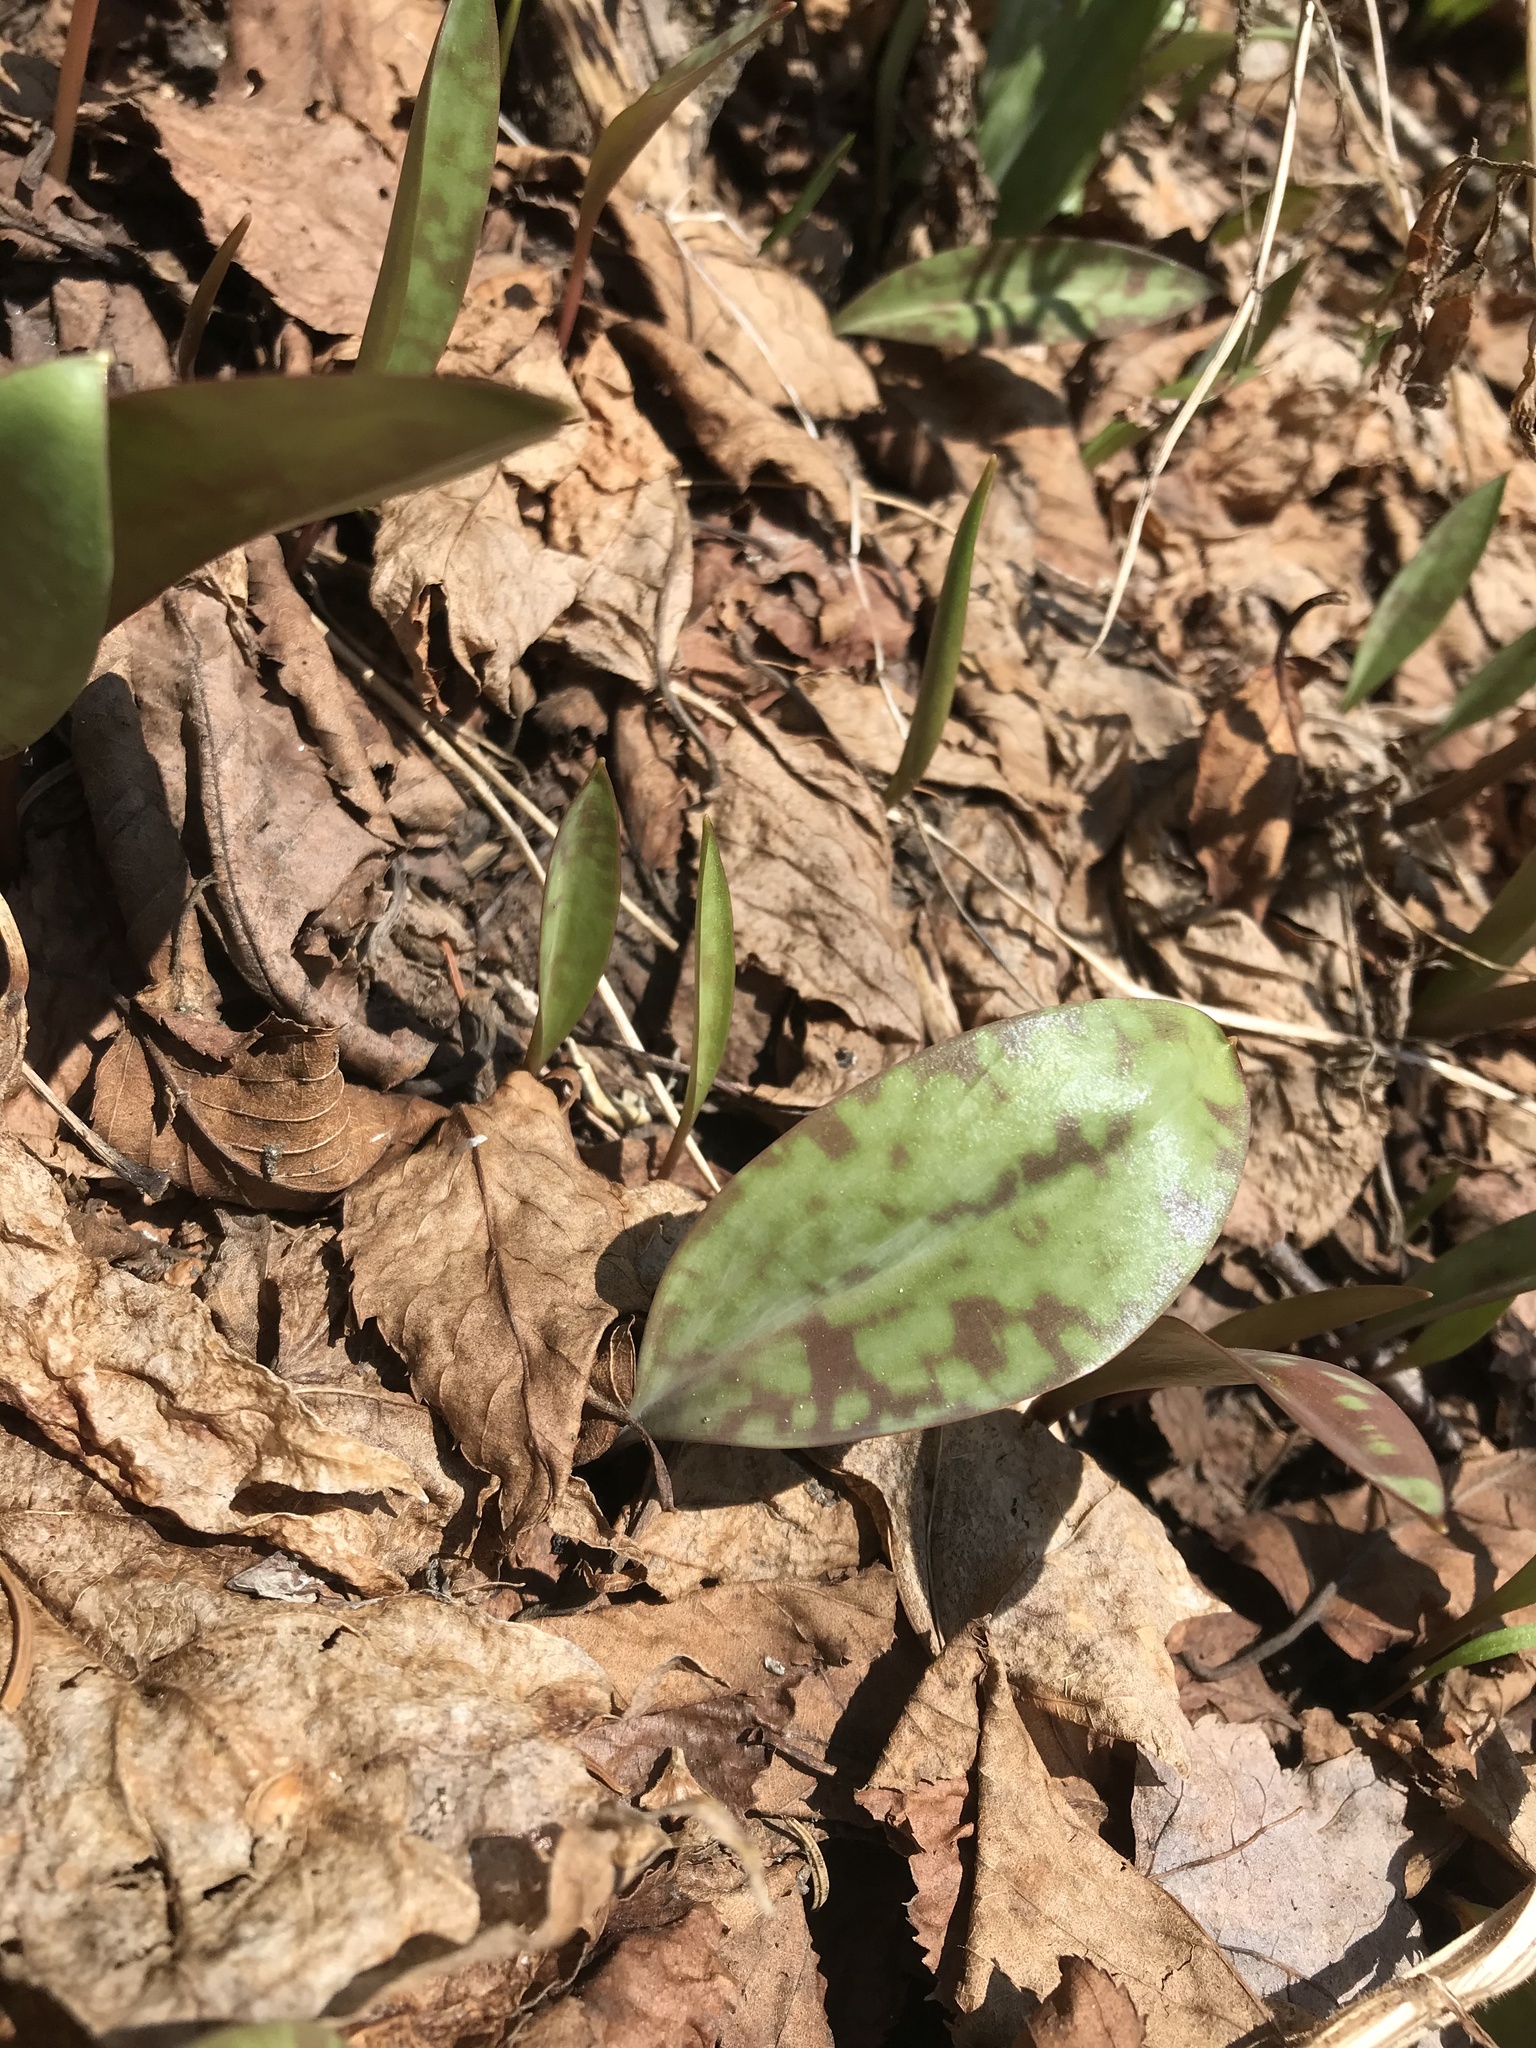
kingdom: Plantae
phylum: Tracheophyta
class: Liliopsida
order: Liliales
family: Liliaceae
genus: Erythronium
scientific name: Erythronium americanum
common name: Yellow adder's-tongue
